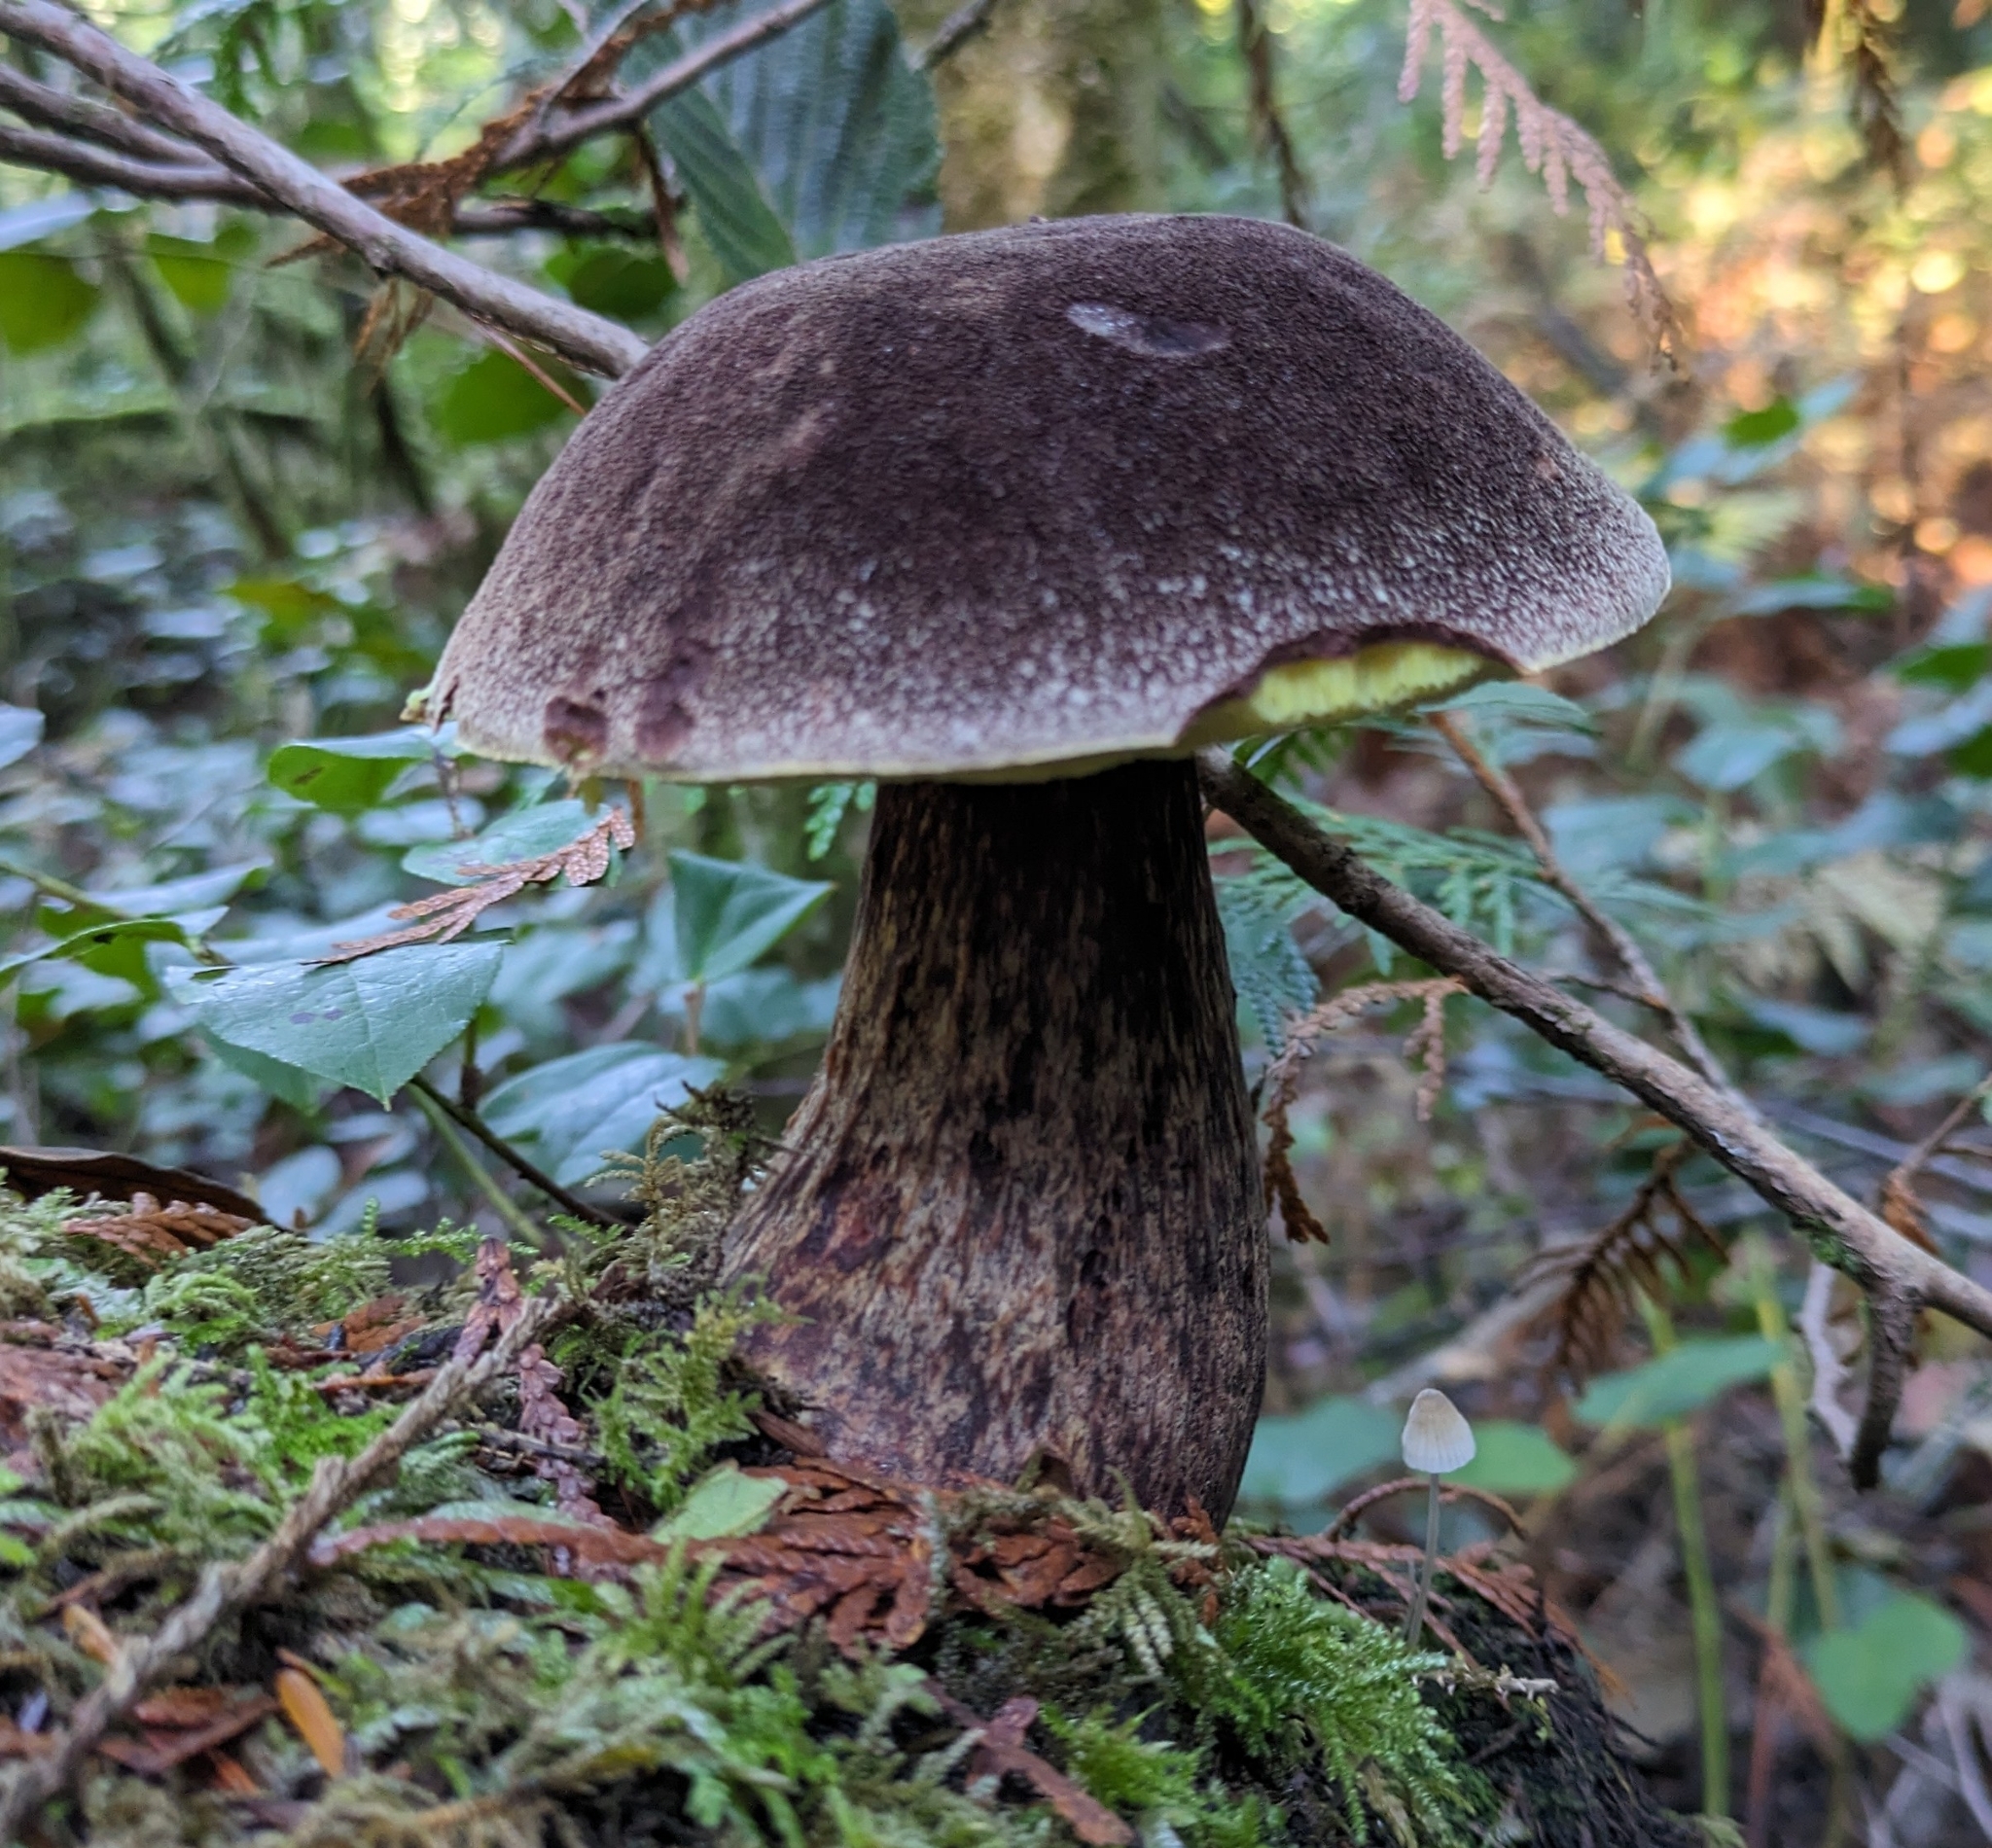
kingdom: Fungi
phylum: Basidiomycota
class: Agaricomycetes
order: Boletales
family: Boletaceae
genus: Aureoboletus
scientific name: Aureoboletus mirabilis
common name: Admirable bolete
